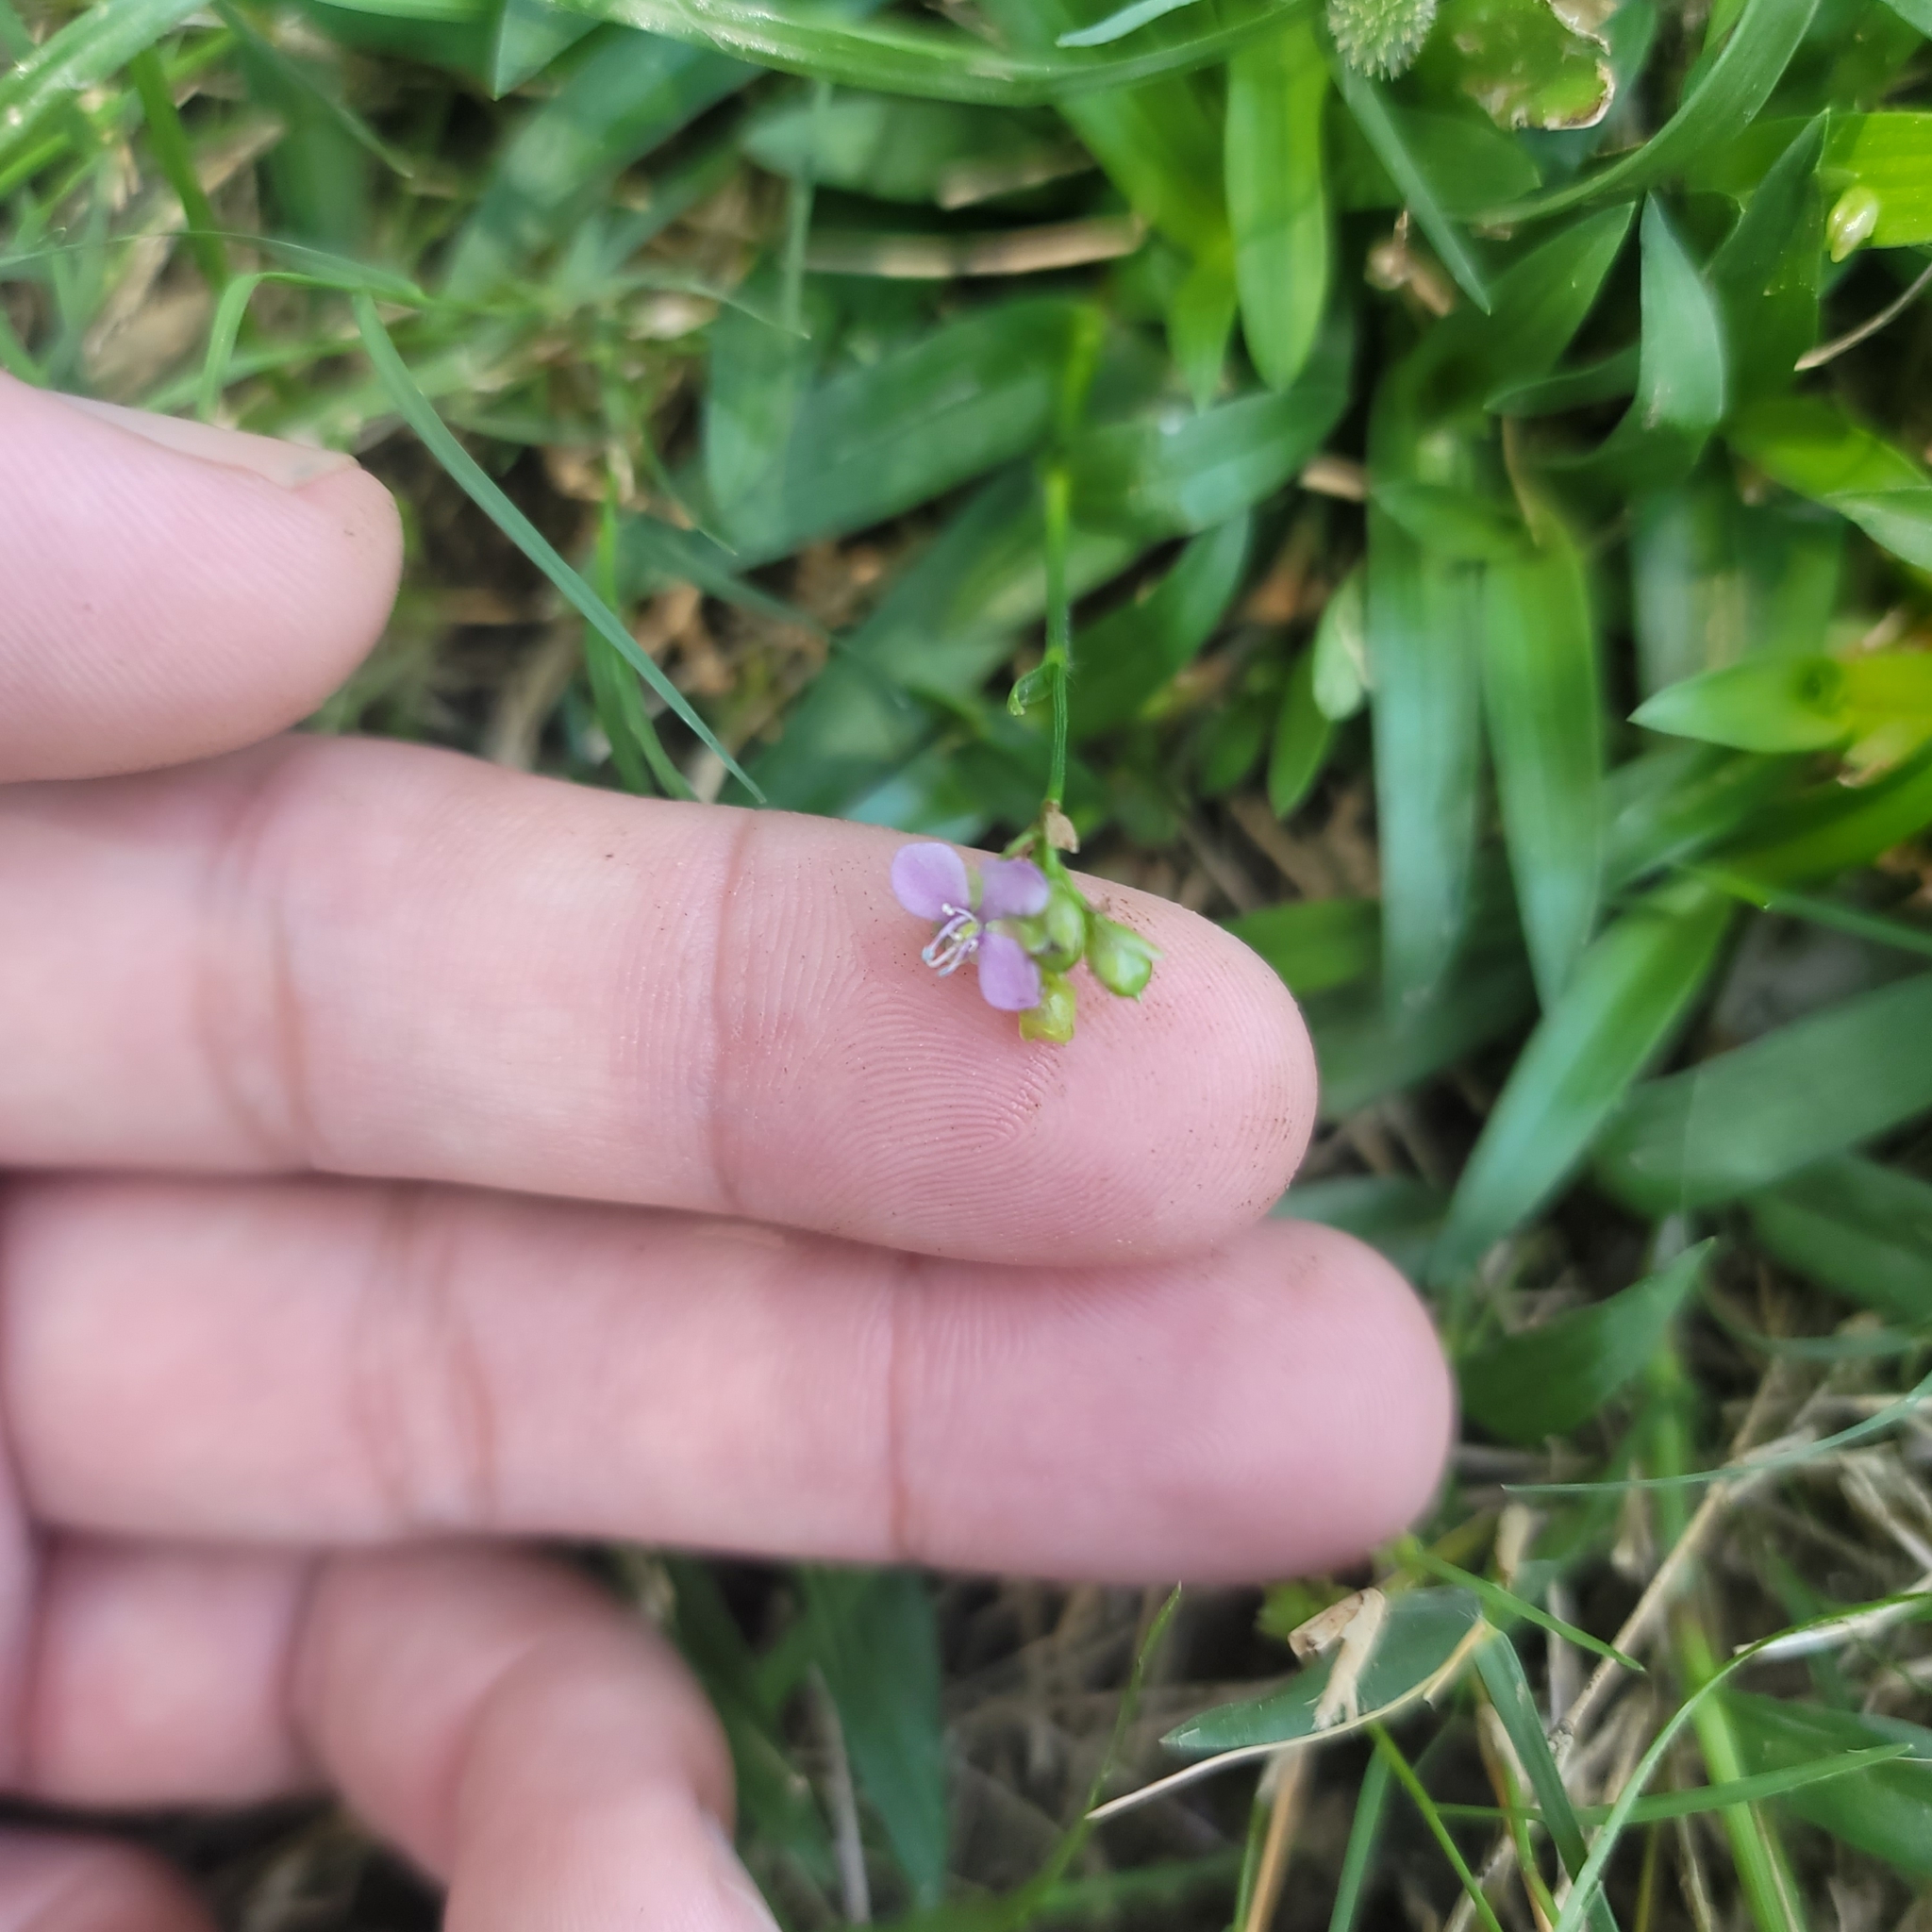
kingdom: Plantae
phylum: Tracheophyta
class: Liliopsida
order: Commelinales
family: Commelinaceae
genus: Murdannia
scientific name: Murdannia nudiflora
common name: Nakedstem dewflower
